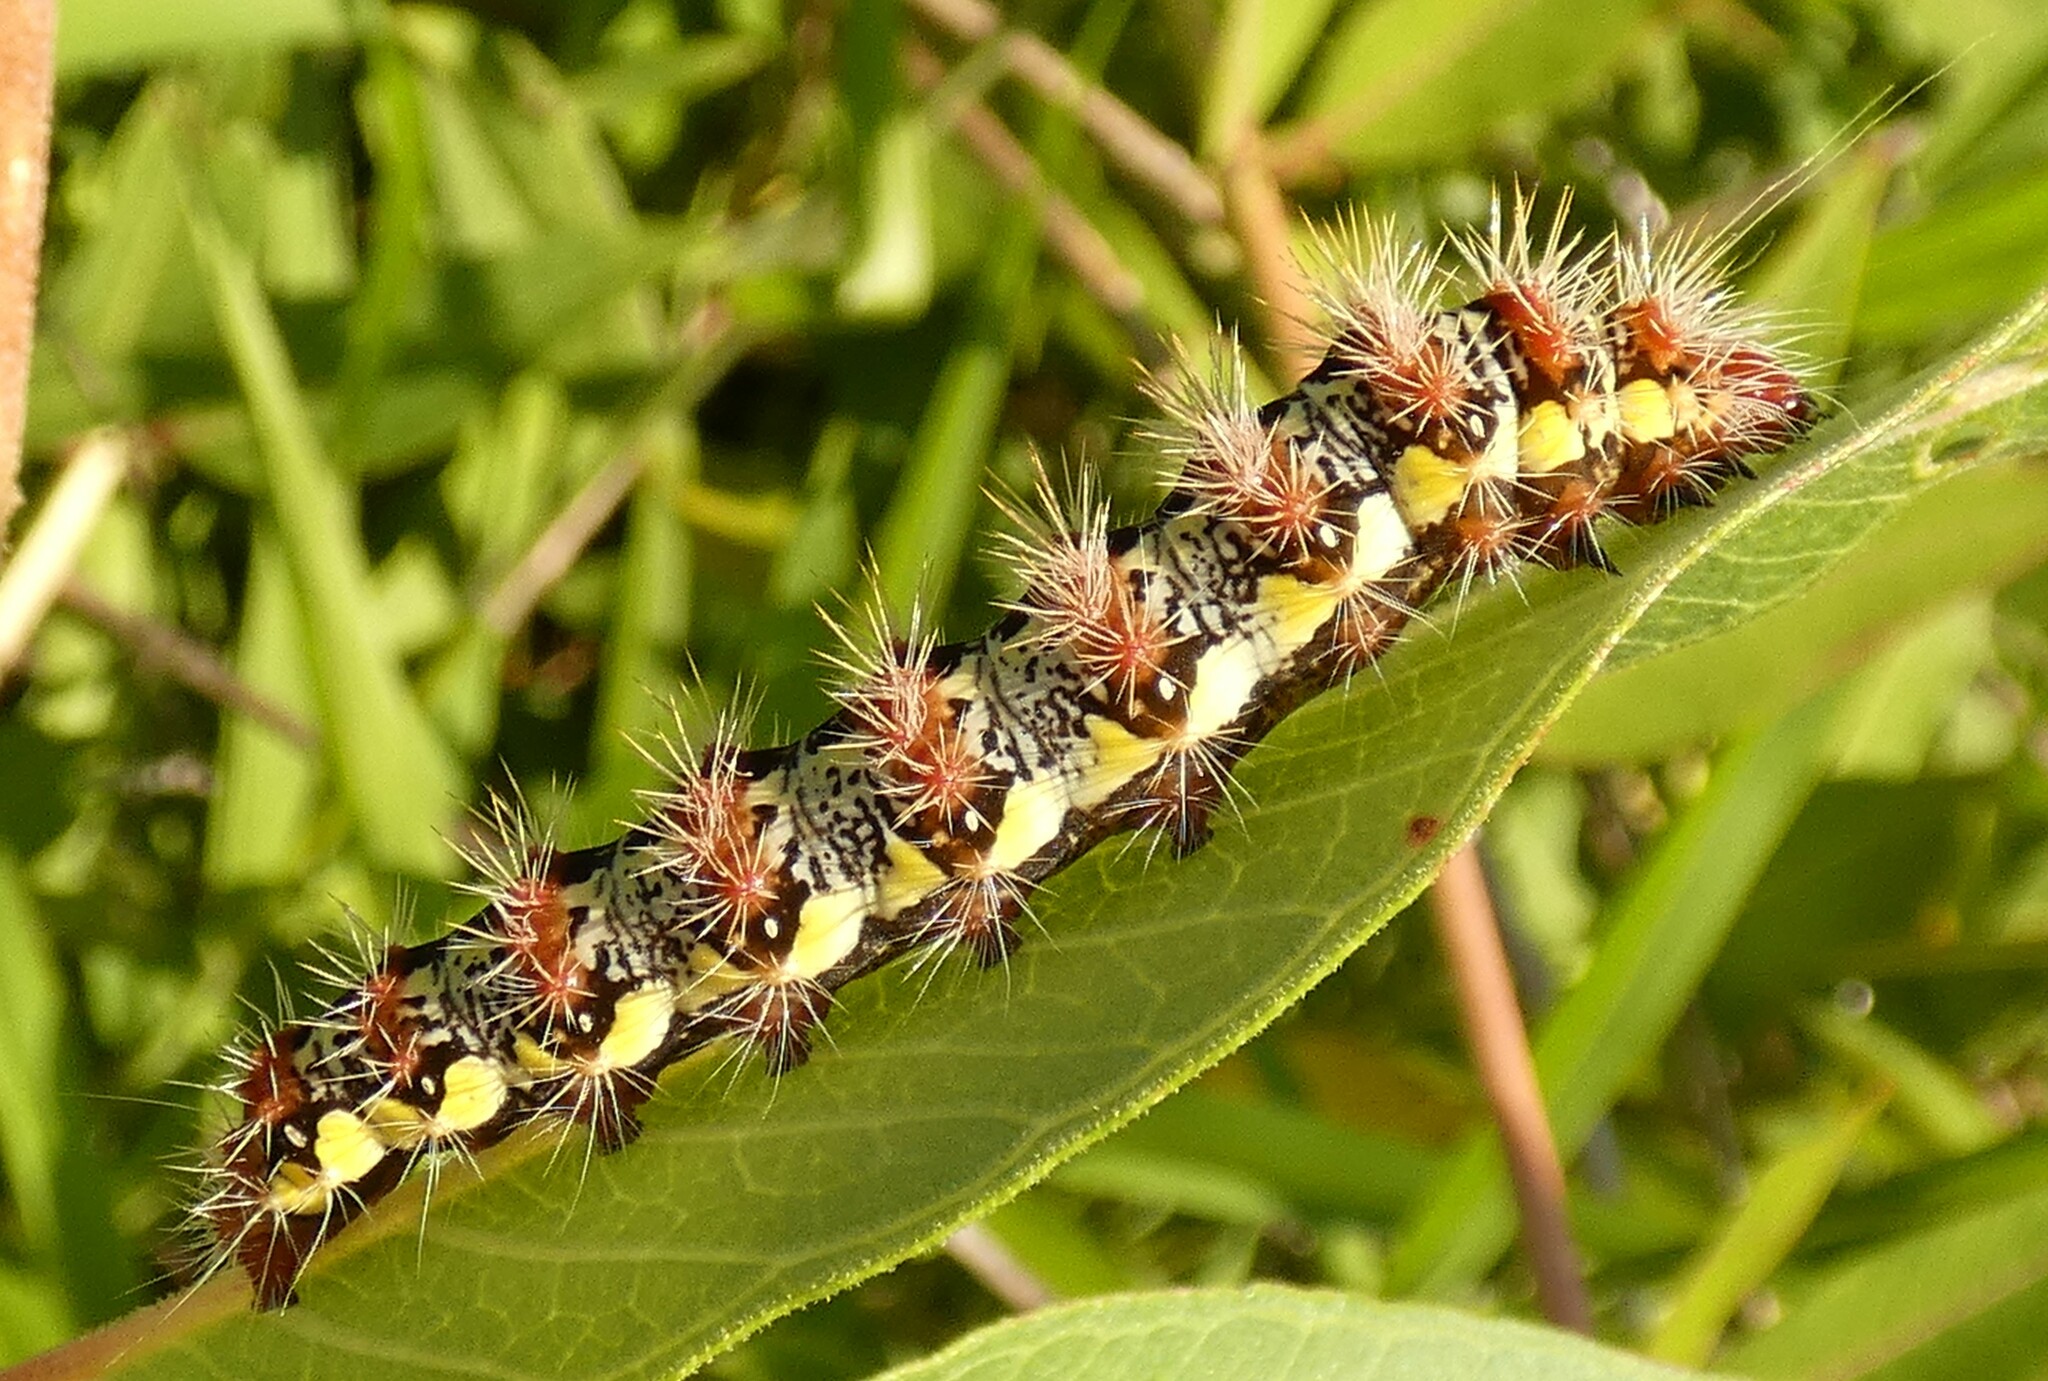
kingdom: Animalia
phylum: Arthropoda
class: Insecta
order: Lepidoptera
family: Noctuidae
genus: Acronicta
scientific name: Acronicta oblinita
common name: Smeared dagger
